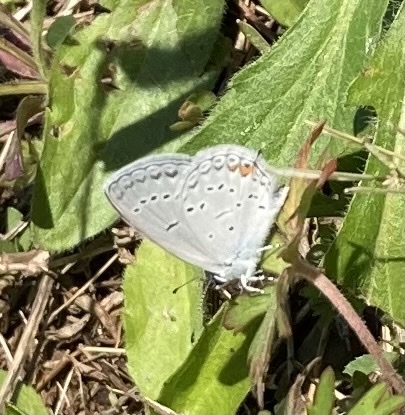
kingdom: Animalia
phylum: Arthropoda
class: Insecta
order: Lepidoptera
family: Lycaenidae
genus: Elkalyce
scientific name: Elkalyce comyntas
